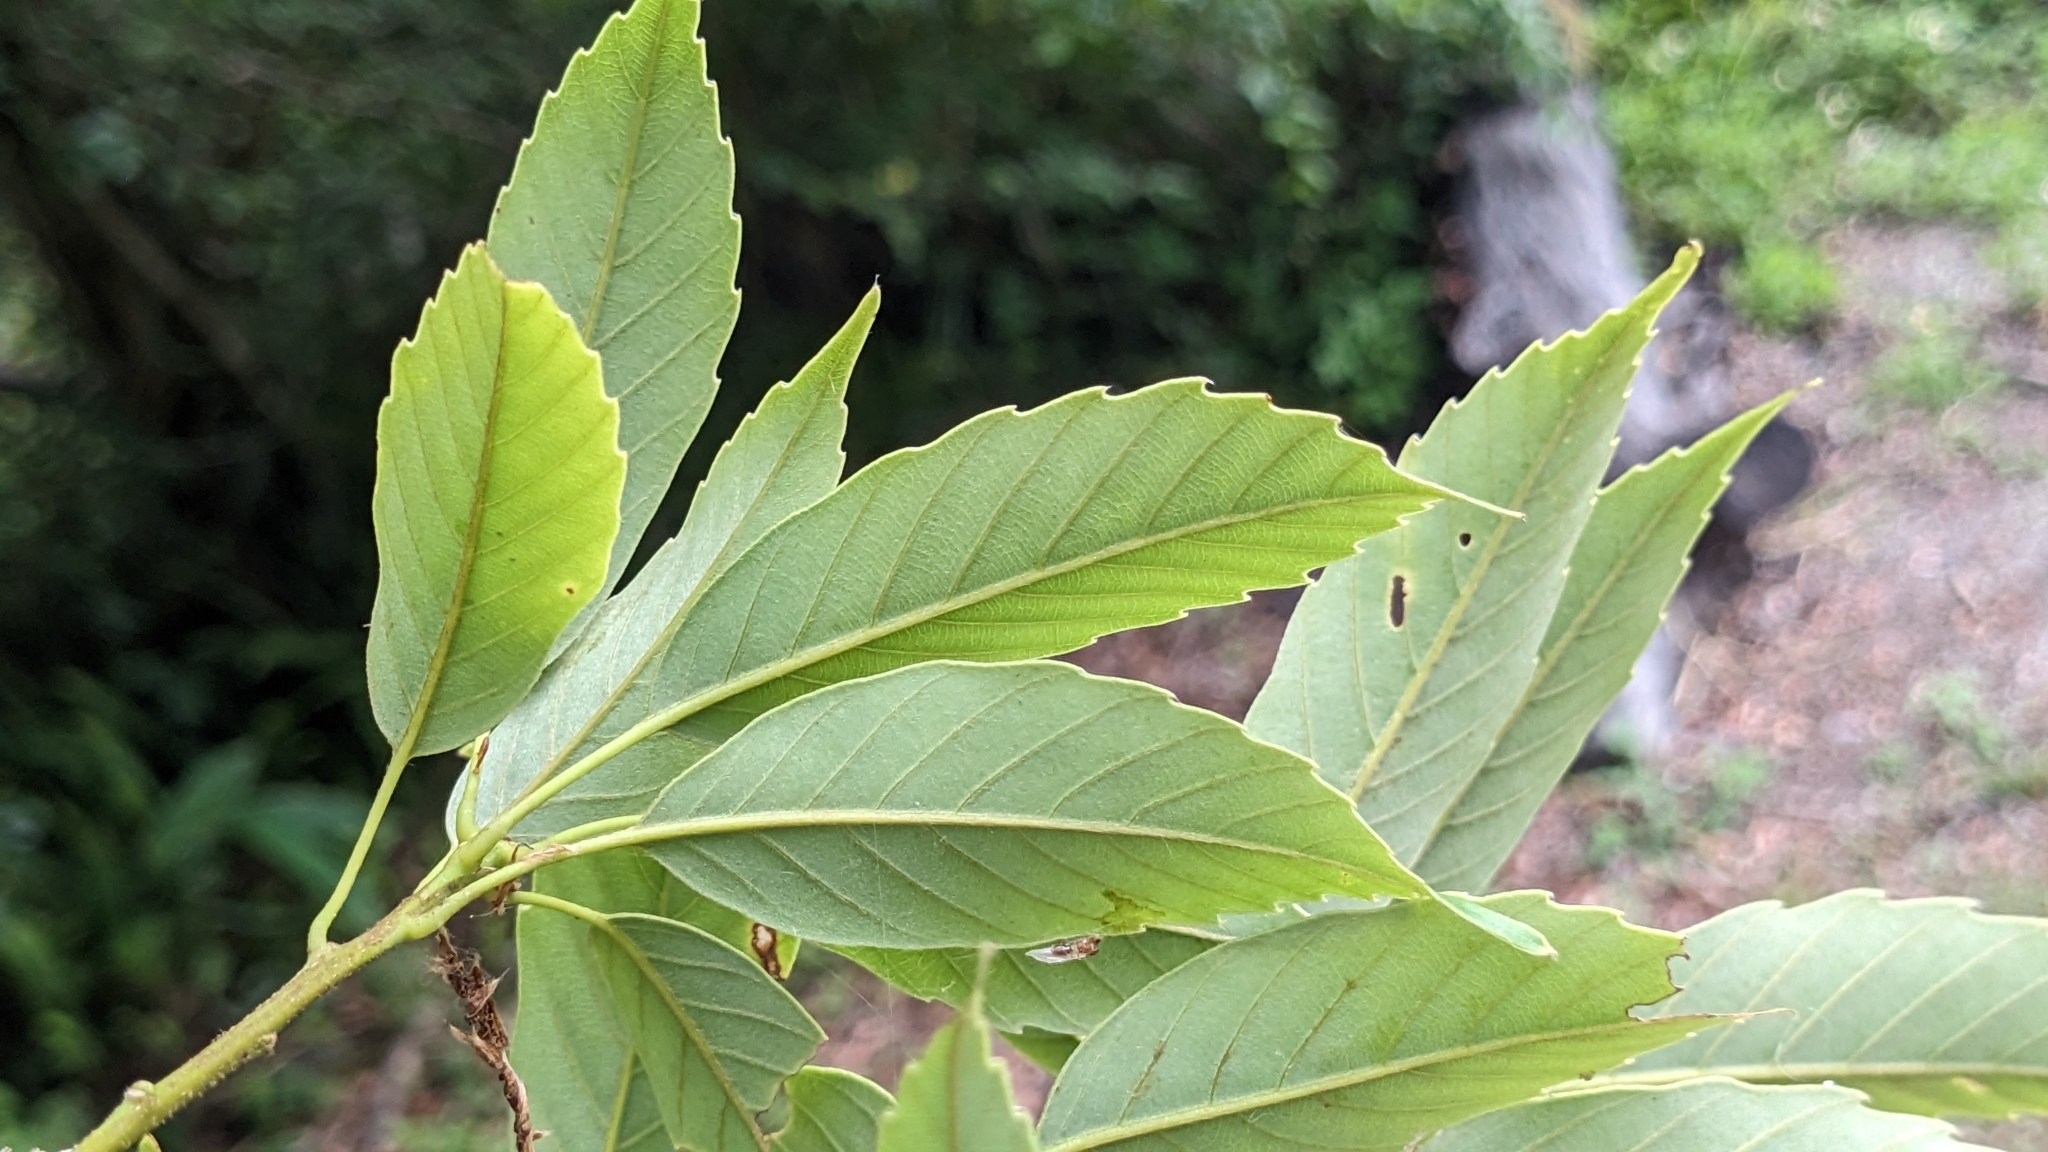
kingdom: Plantae
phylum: Tracheophyta
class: Magnoliopsida
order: Fagales
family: Fagaceae
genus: Quercus
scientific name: Quercus glauca
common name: Ring-cup oak
